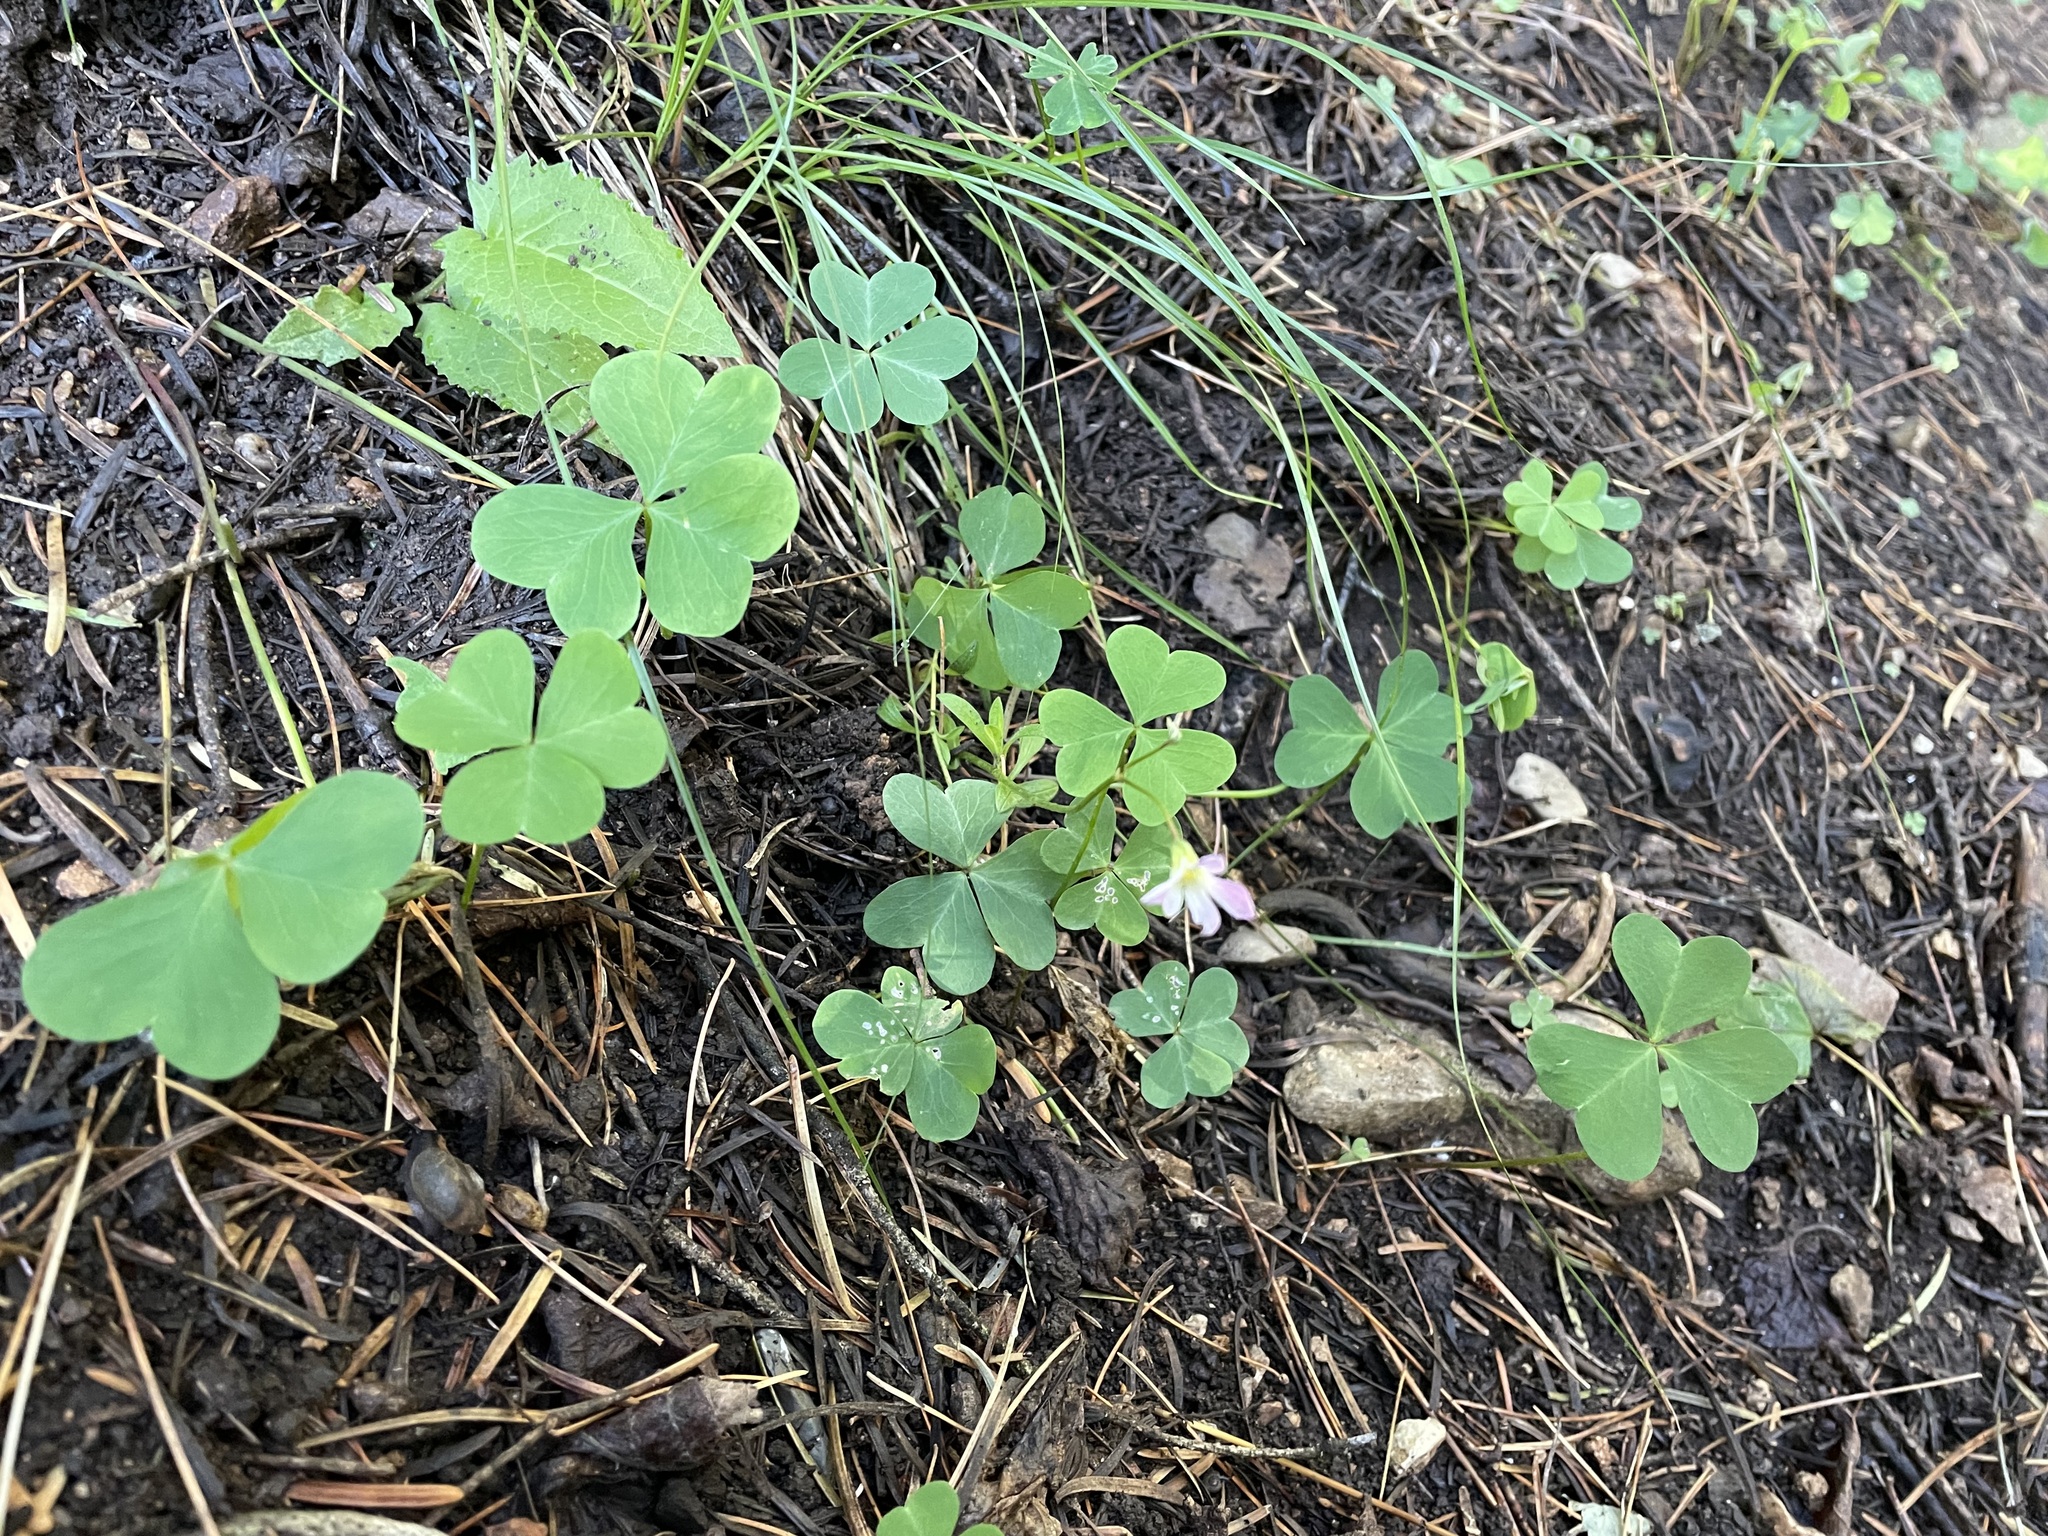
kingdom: Plantae
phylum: Tracheophyta
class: Magnoliopsida
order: Oxalidales
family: Oxalidaceae
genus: Oxalis
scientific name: Oxalis metcalfei
